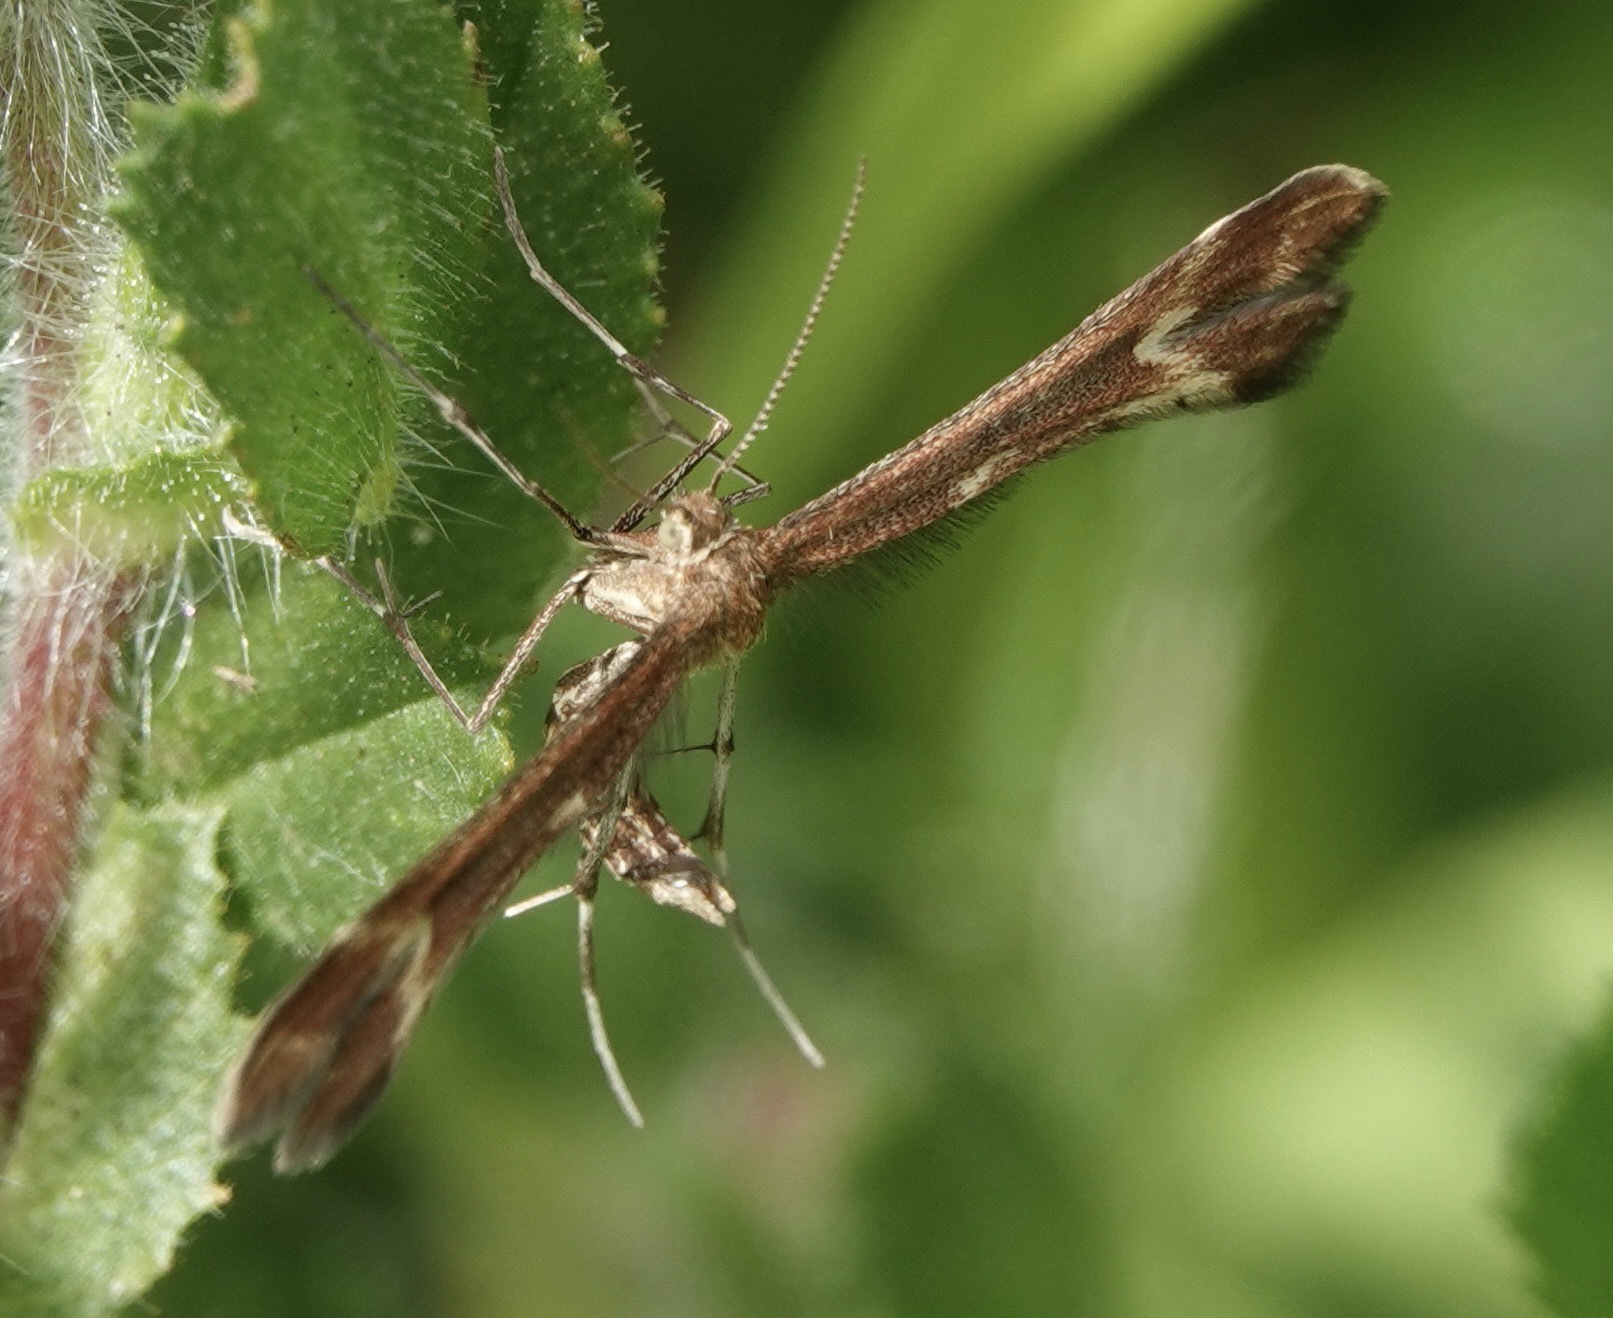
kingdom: Animalia
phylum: Arthropoda
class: Insecta
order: Lepidoptera
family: Pterophoridae
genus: Marasmarcha
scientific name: Marasmarcha lunaedactyla
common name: Crescent plume
